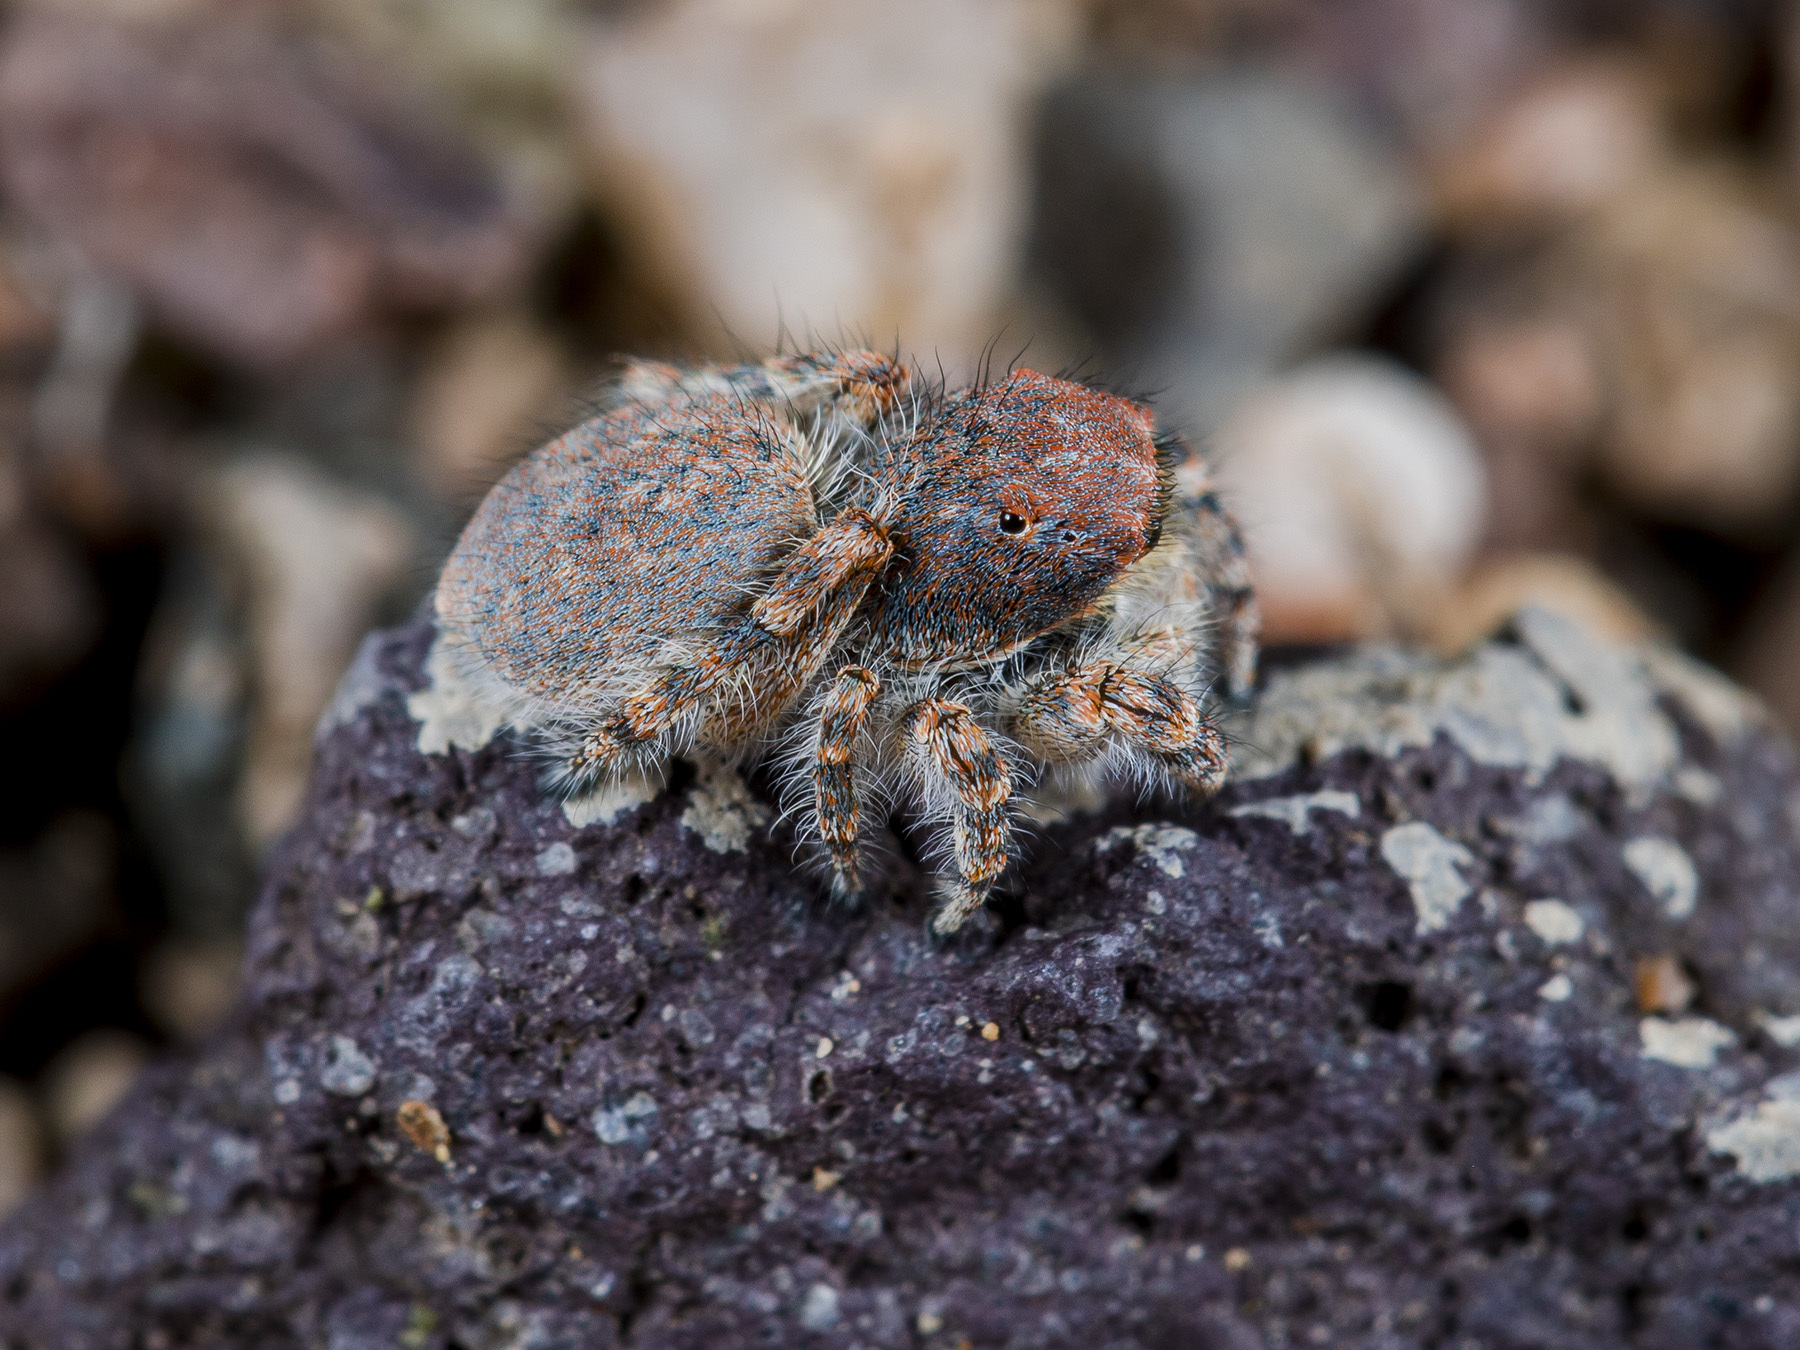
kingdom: Animalia
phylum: Arthropoda
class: Arachnida
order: Araneae
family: Salticidae
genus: Yllenus
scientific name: Yllenus zyuzini
